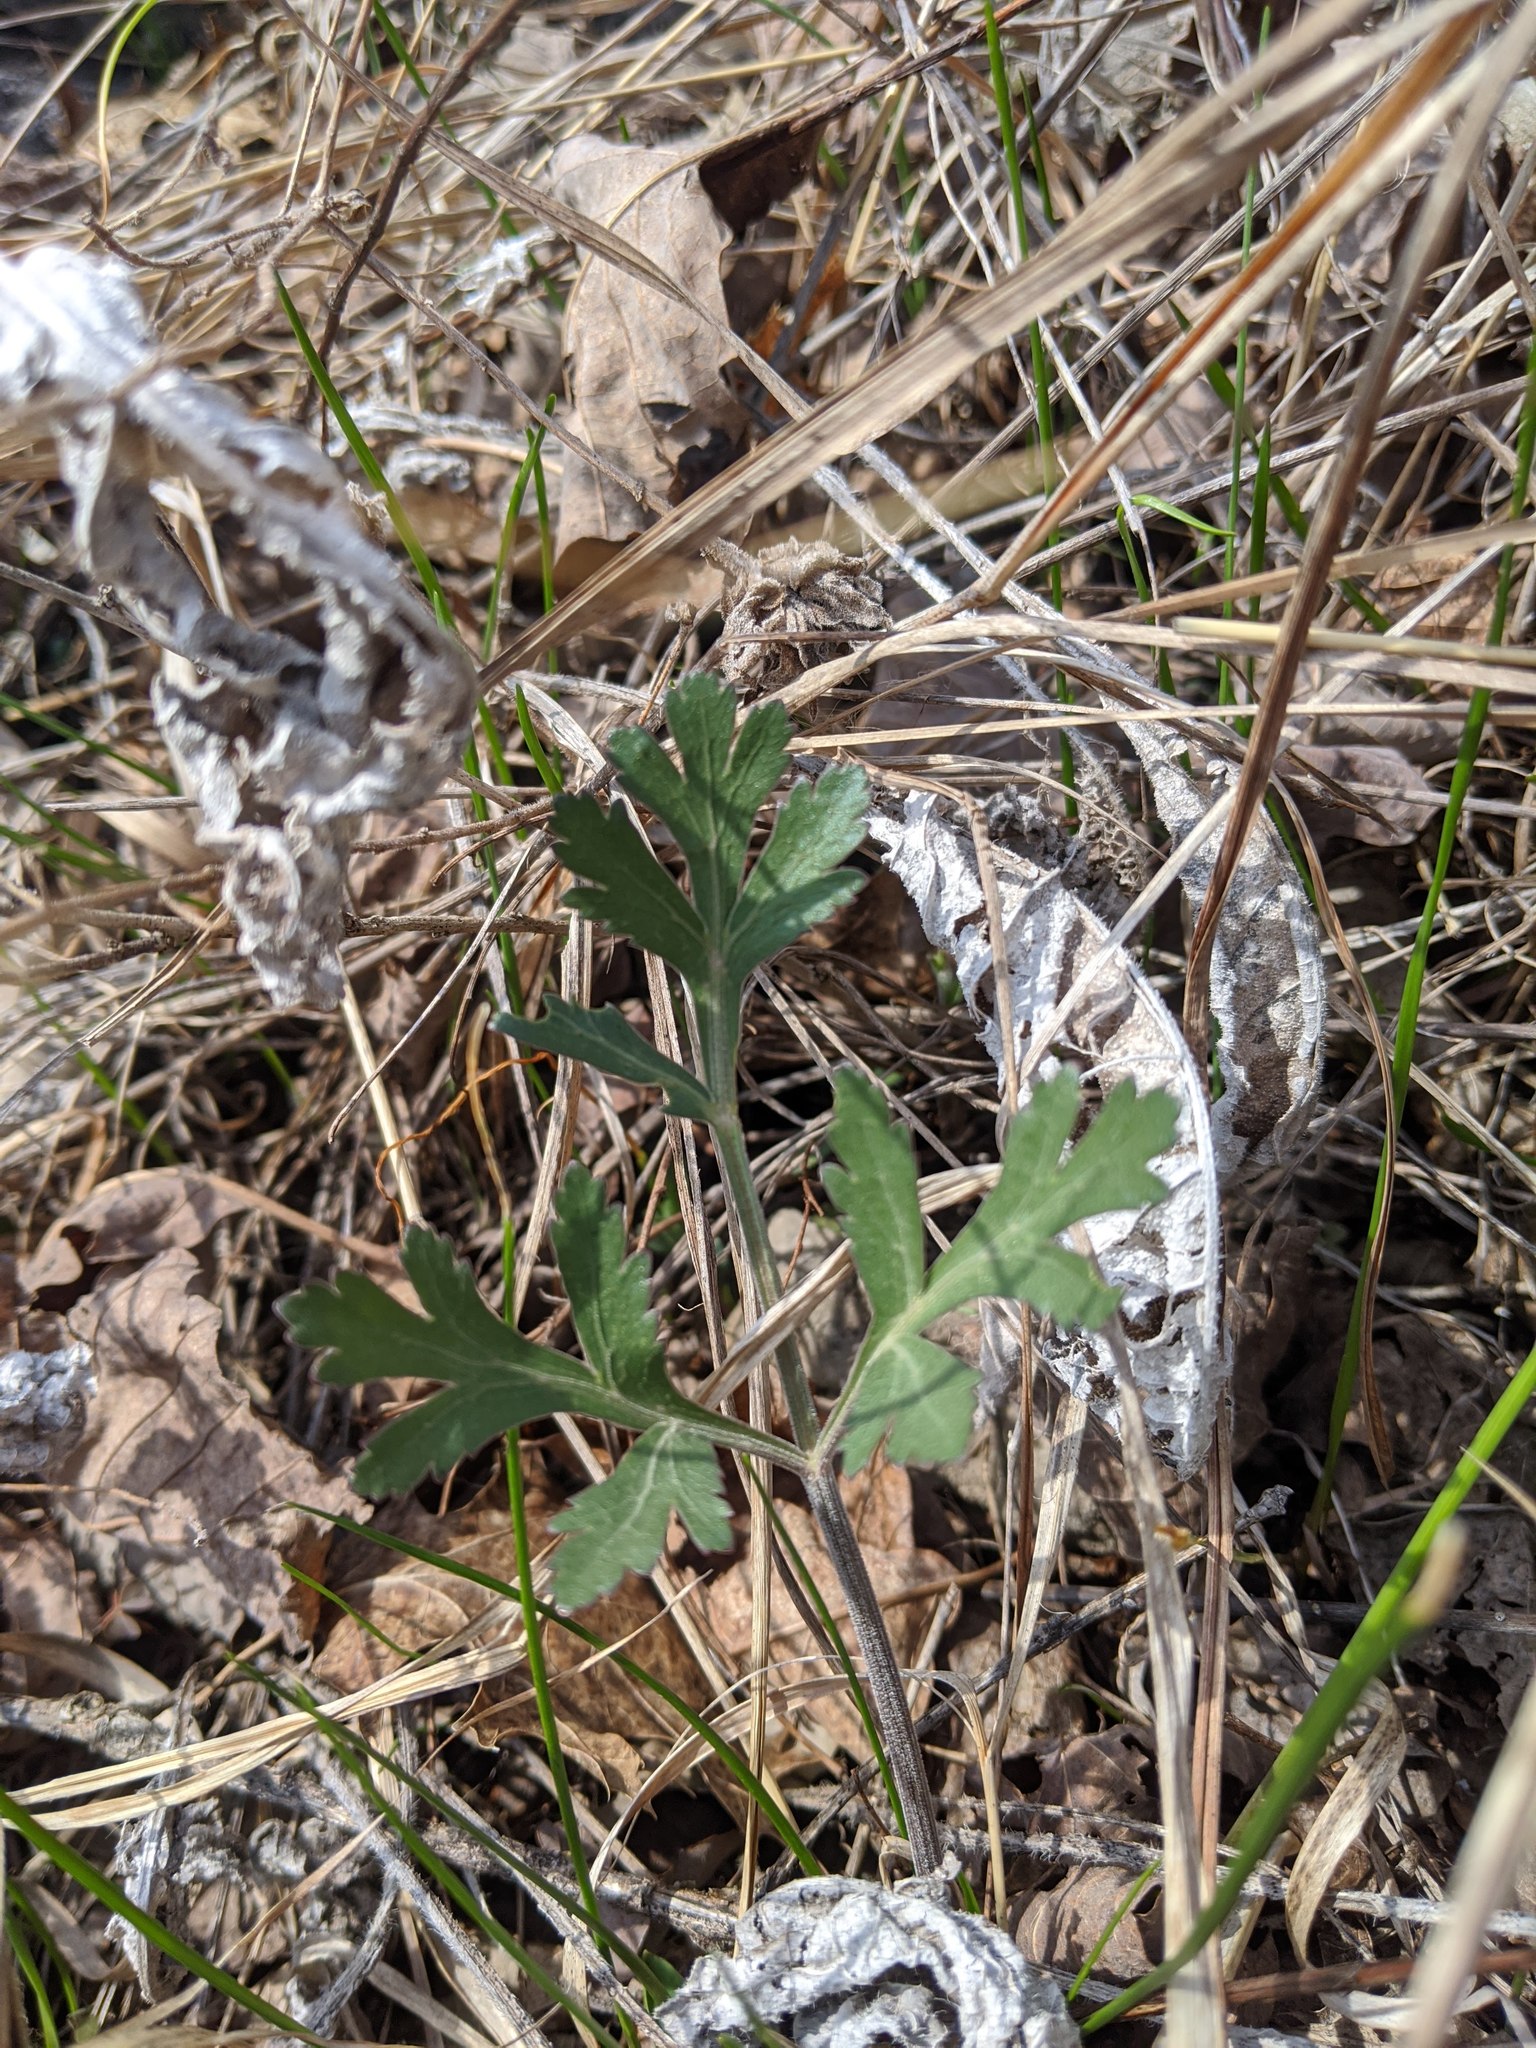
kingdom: Plantae
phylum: Tracheophyta
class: Magnoliopsida
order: Apiales
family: Apiaceae
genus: Polytaenia
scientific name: Polytaenia nuttallii
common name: Prairie-parsley
